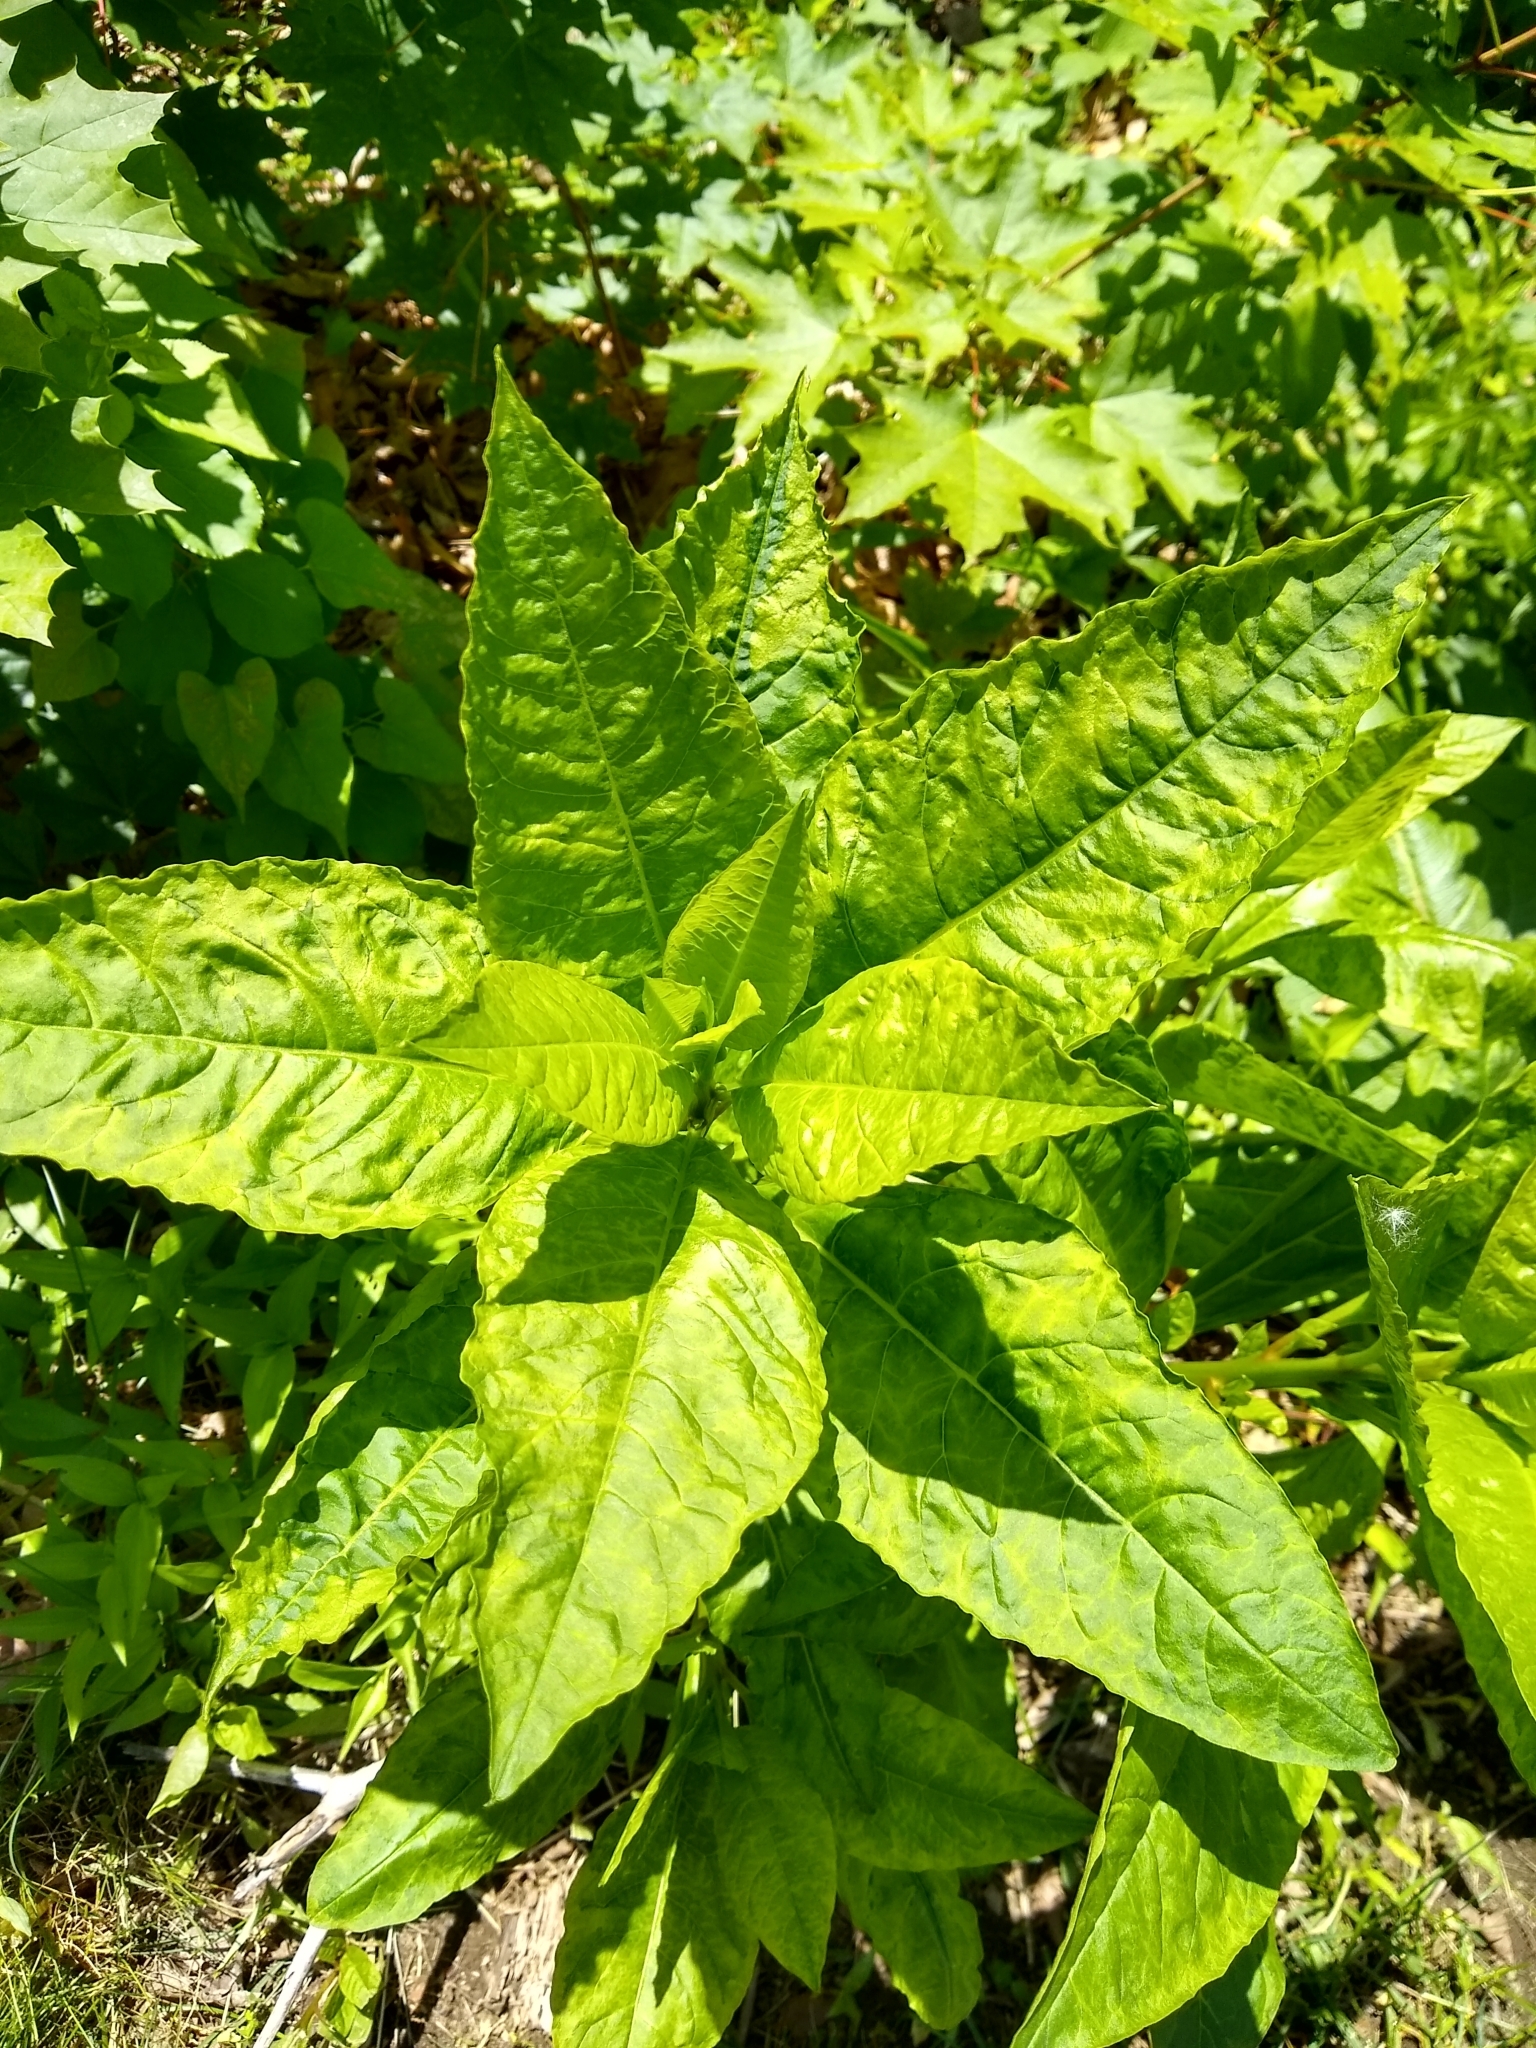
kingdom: Viruses
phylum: Pisuviricota
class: Stelpaviricetes
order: Patatavirales
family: Potyviridae
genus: Potyvirus
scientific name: Potyvirus Pokeweed mosaic virus
